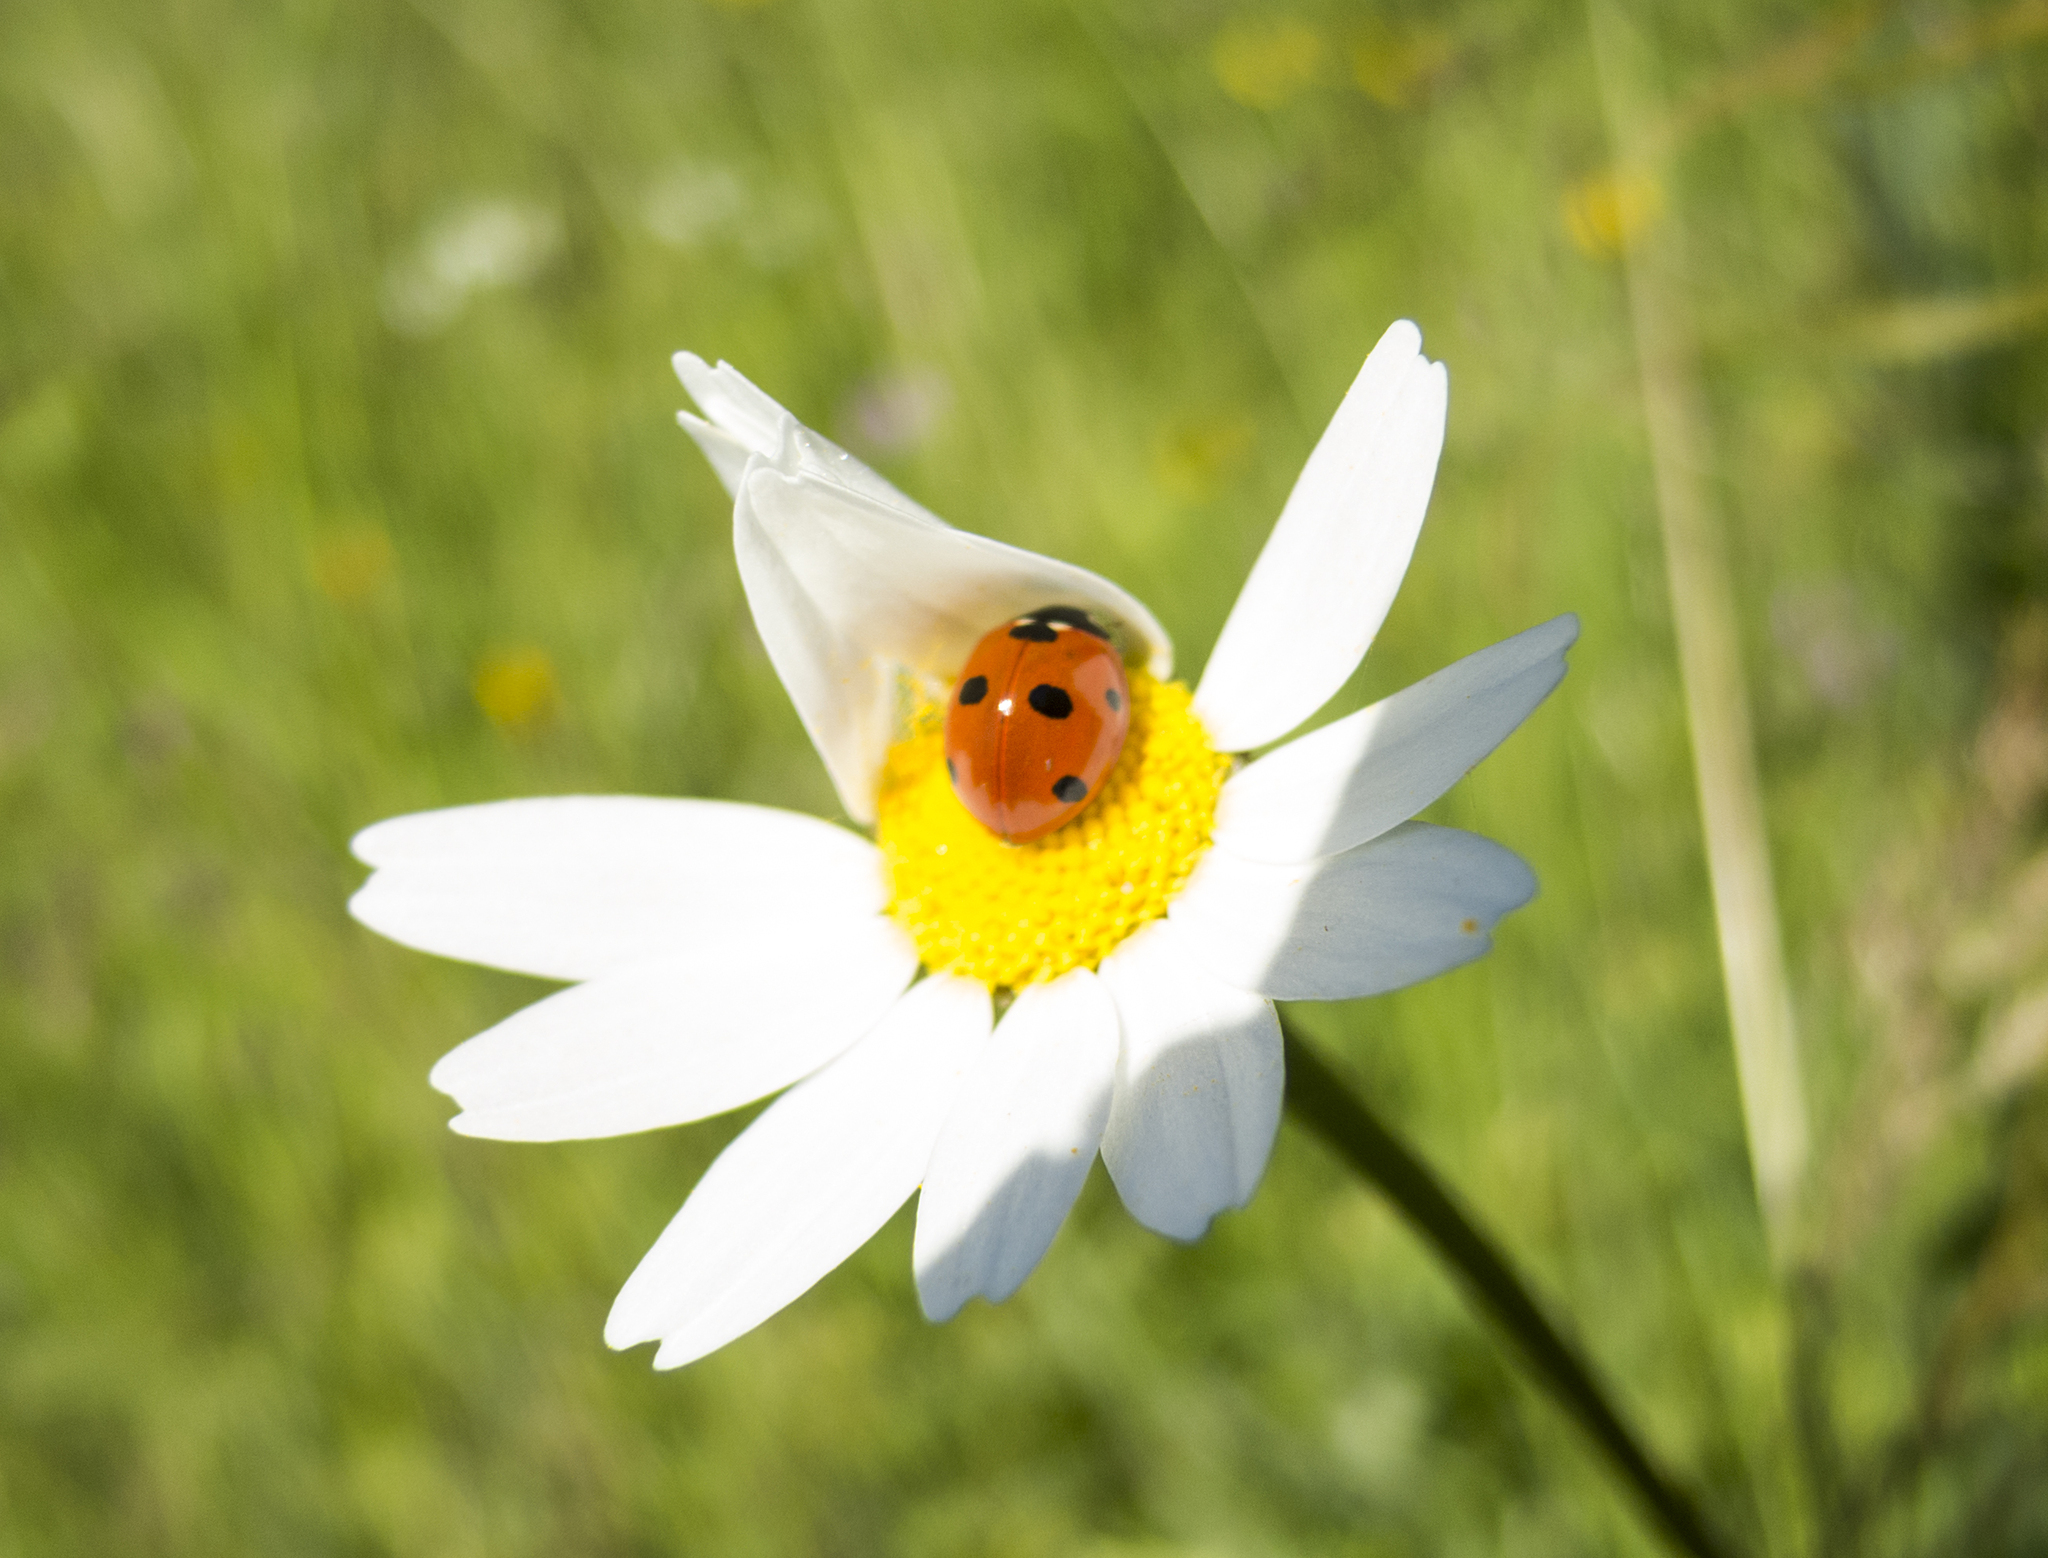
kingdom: Animalia
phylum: Arthropoda
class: Insecta
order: Coleoptera
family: Coccinellidae
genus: Coccinella
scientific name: Coccinella septempunctata
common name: Sevenspotted lady beetle
